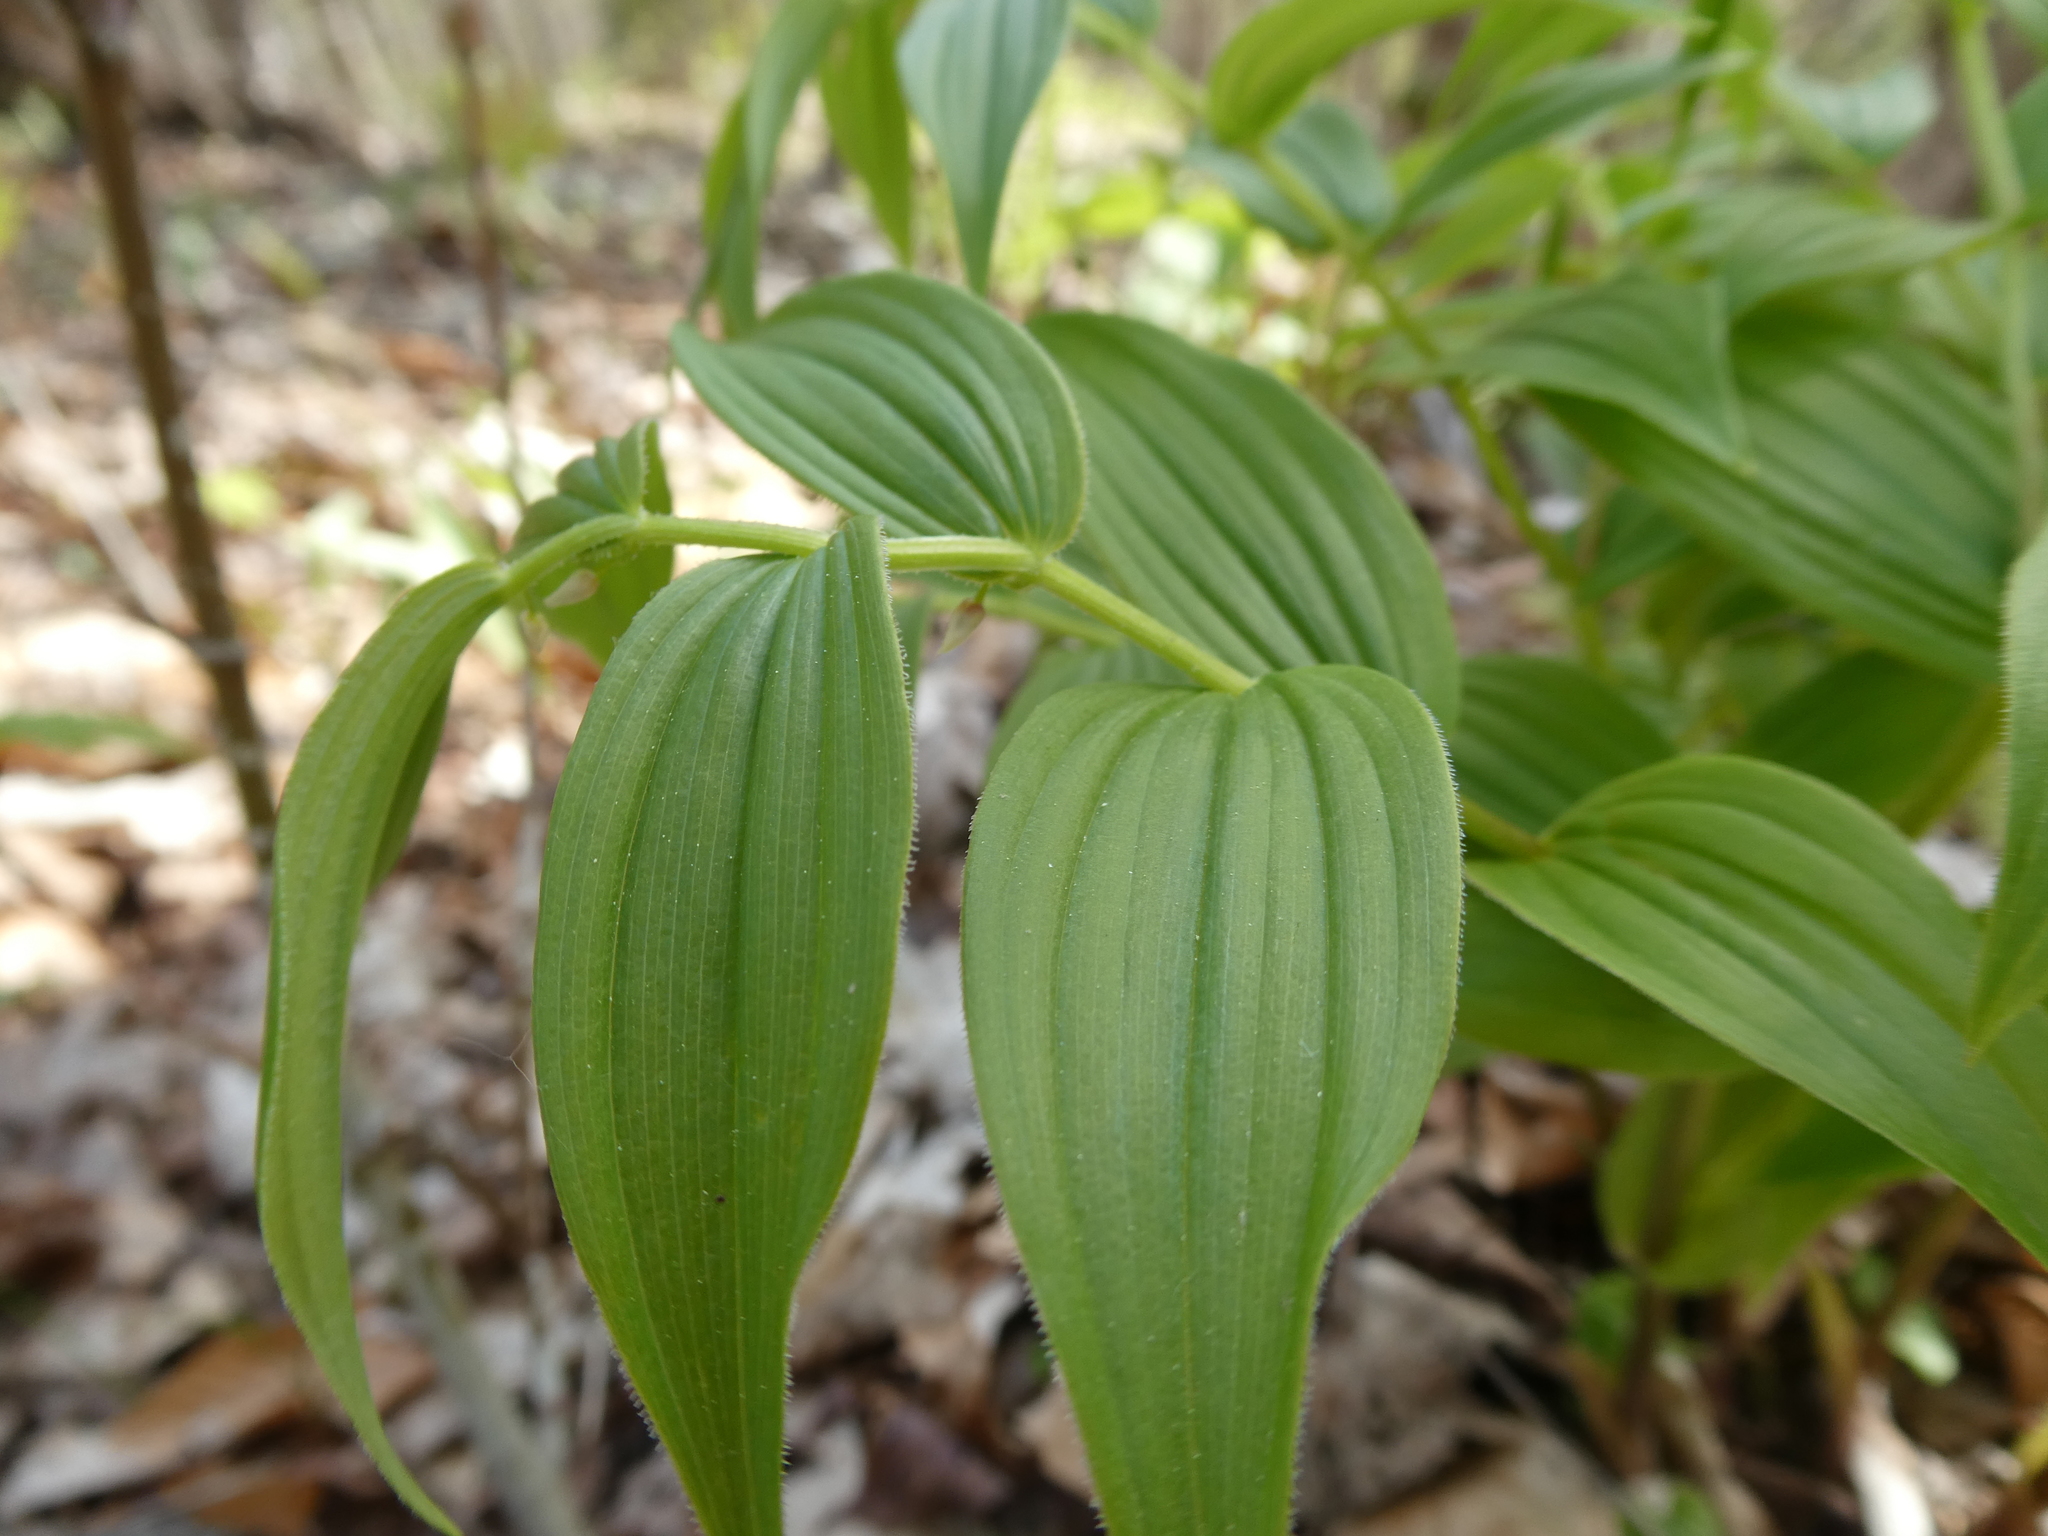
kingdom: Plantae
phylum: Tracheophyta
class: Liliopsida
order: Liliales
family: Liliaceae
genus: Streptopus
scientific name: Streptopus lanceolatus
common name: Rose mandarin
